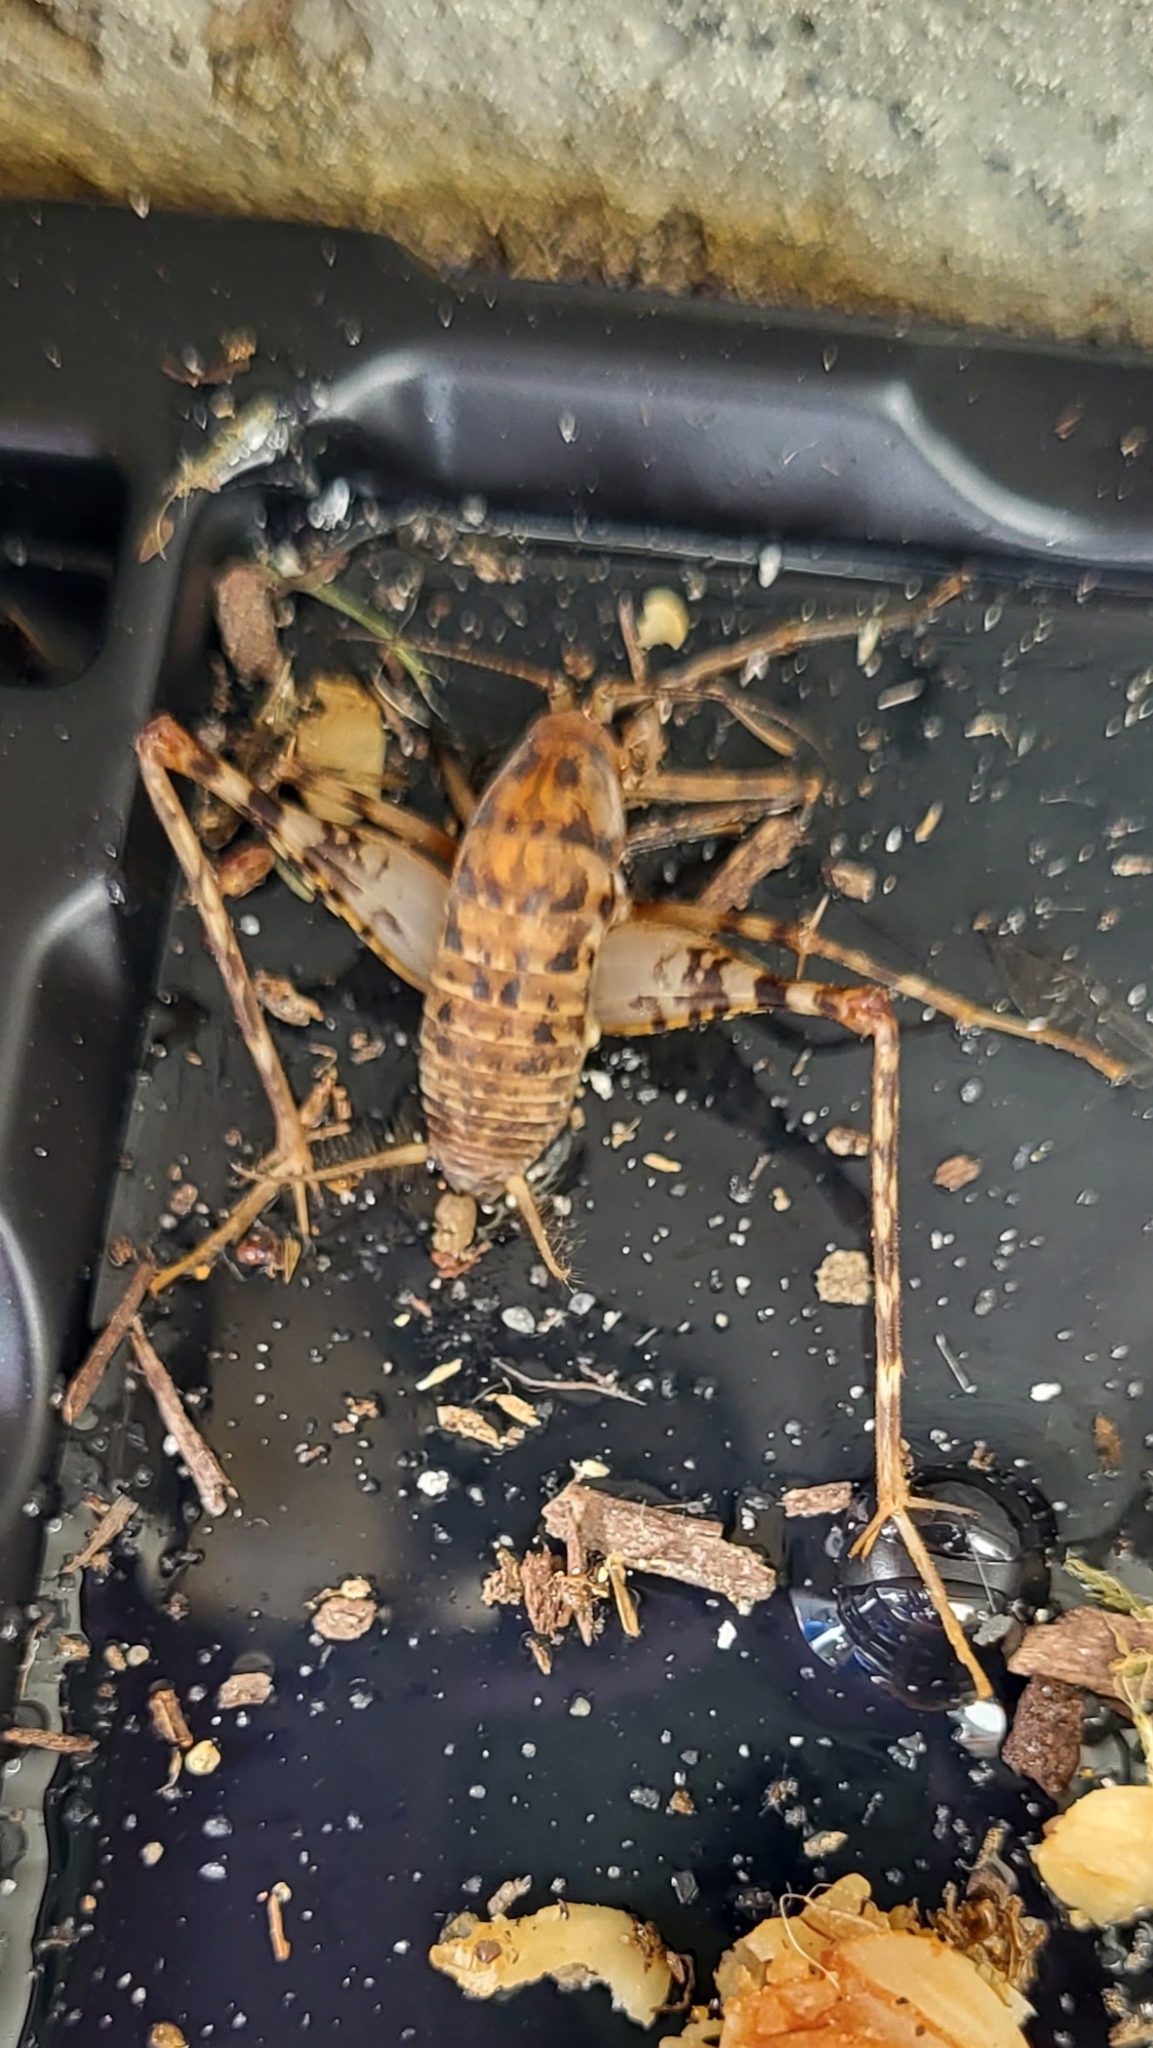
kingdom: Animalia
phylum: Arthropoda
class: Insecta
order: Orthoptera
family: Rhaphidophoridae
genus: Tachycines
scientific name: Tachycines asynamorus
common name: Greenhouse camel cricket
